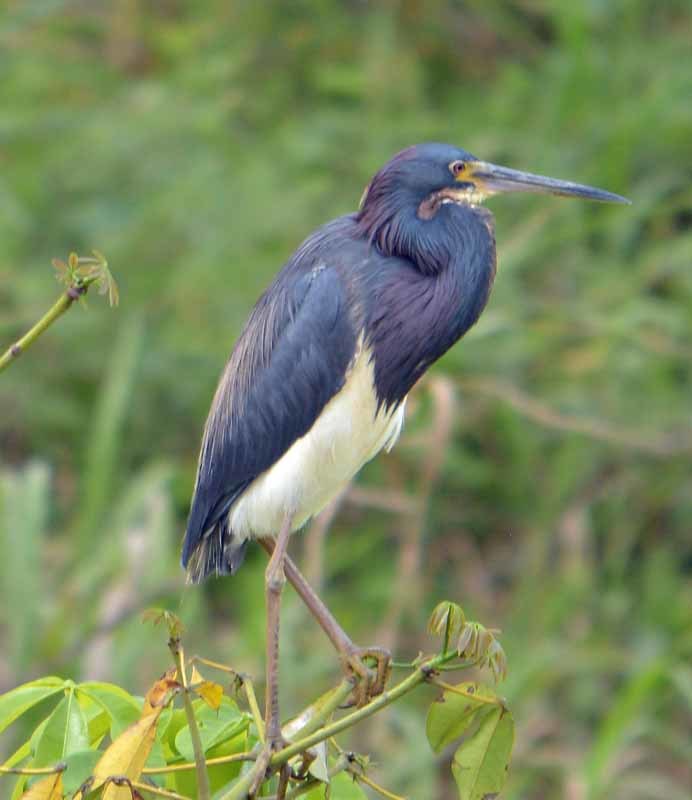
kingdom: Animalia
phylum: Chordata
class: Aves
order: Pelecaniformes
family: Ardeidae
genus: Egretta
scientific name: Egretta tricolor
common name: Tricolored heron
